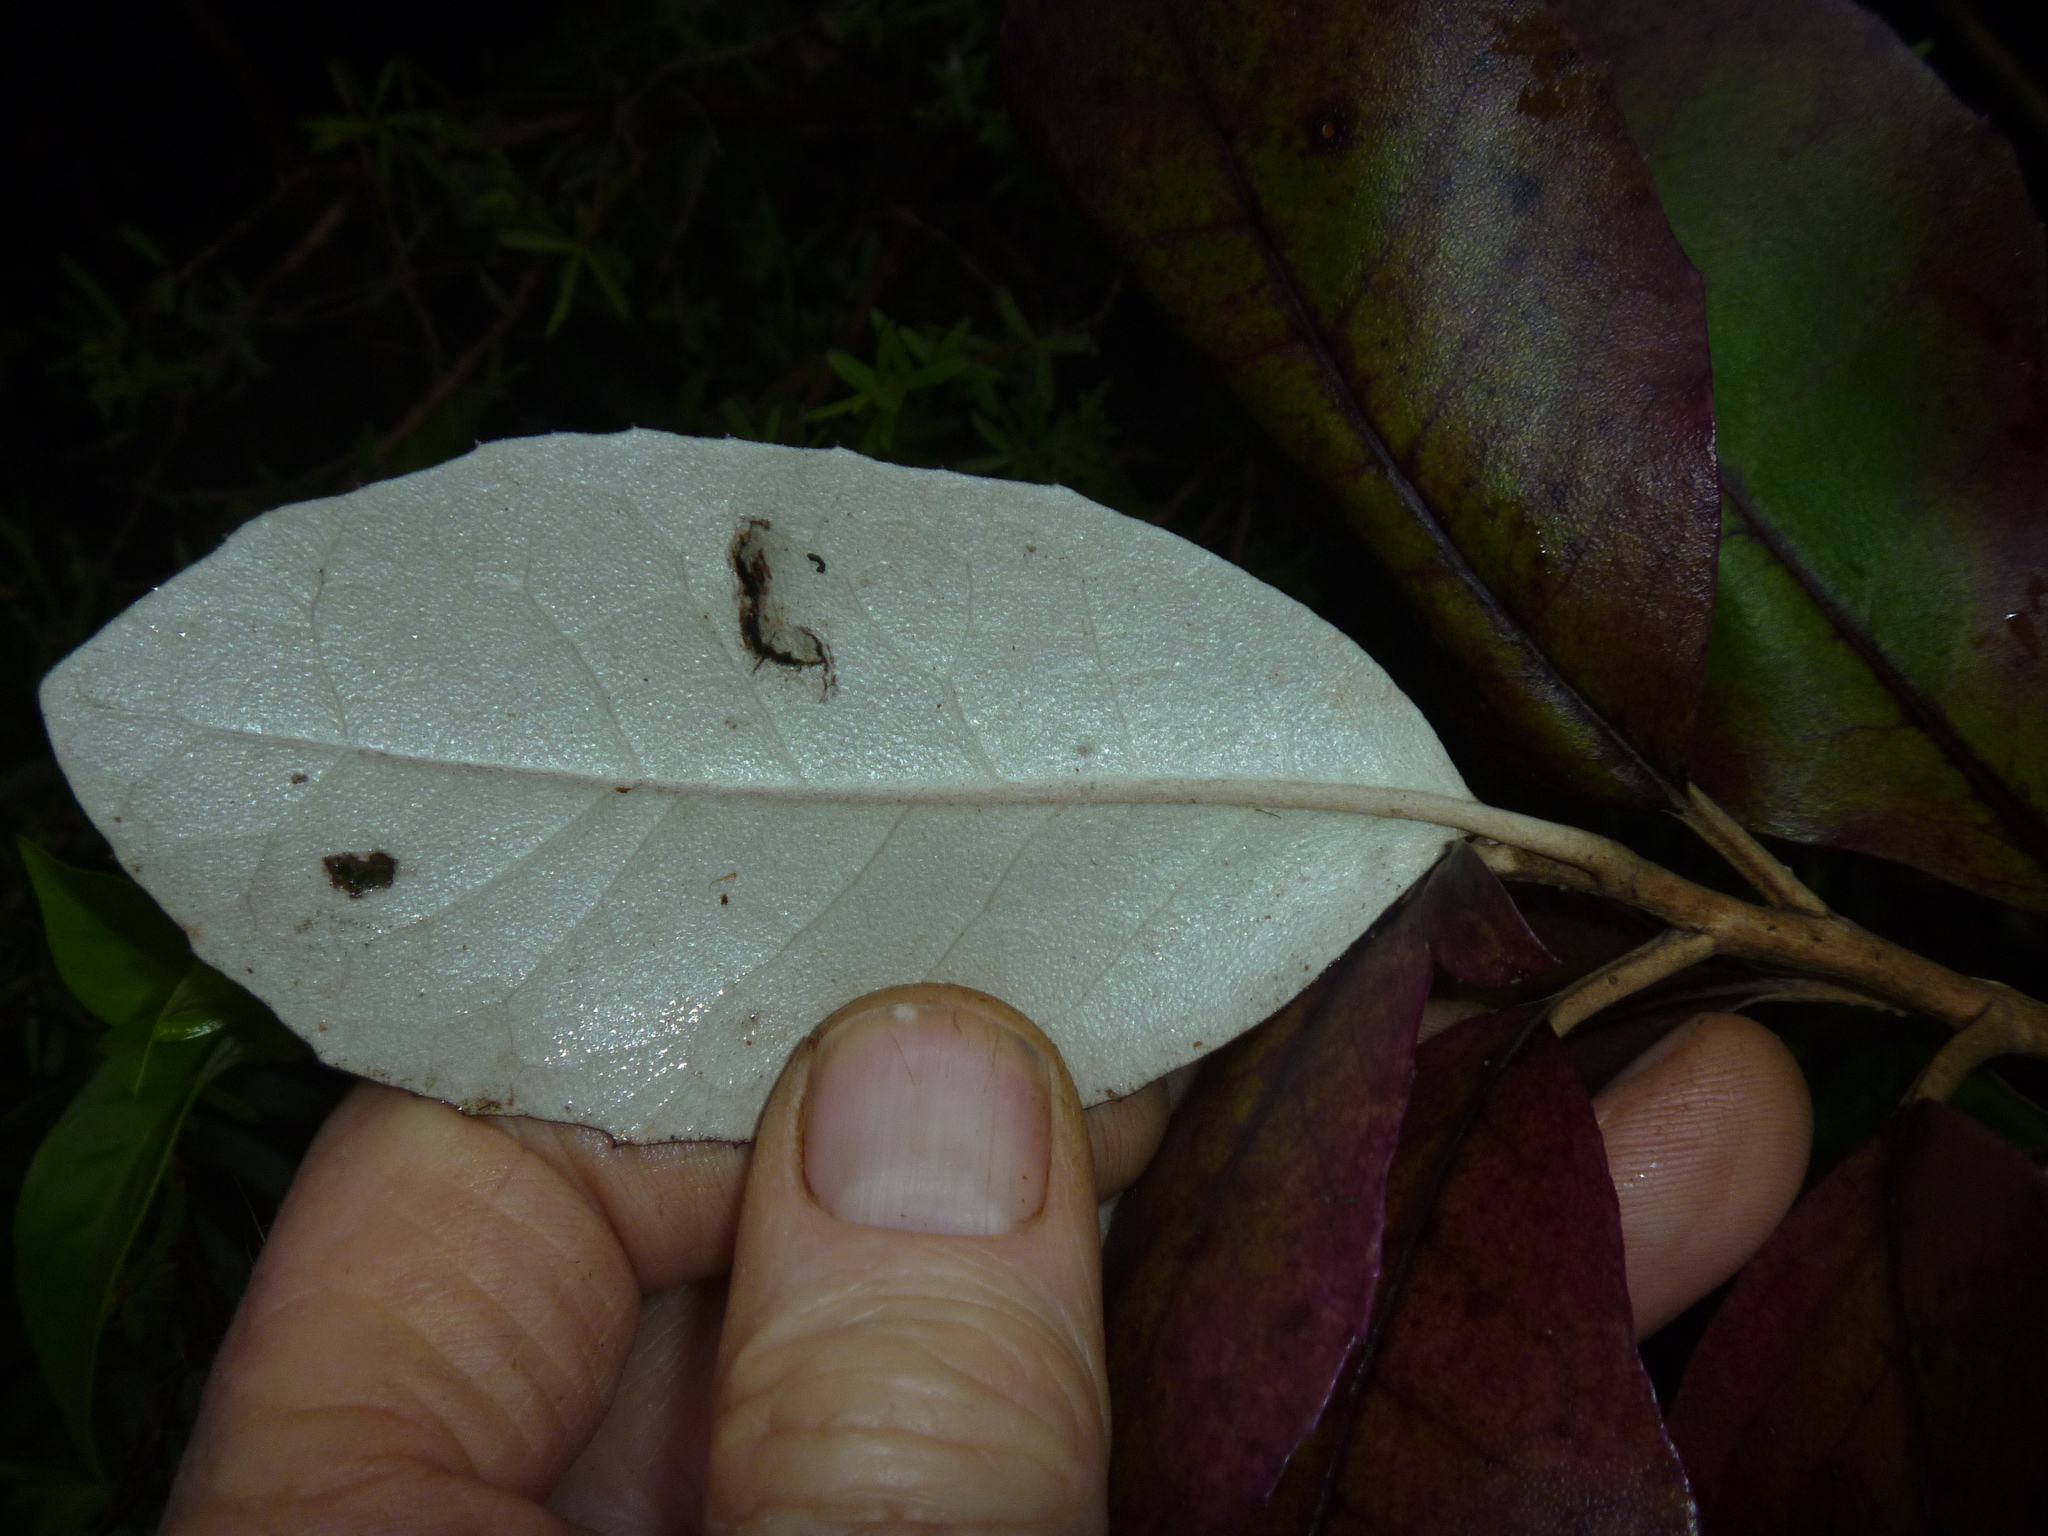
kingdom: Plantae
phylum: Tracheophyta
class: Magnoliopsida
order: Asterales
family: Asteraceae
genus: Olearia
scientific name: Olearia rani
